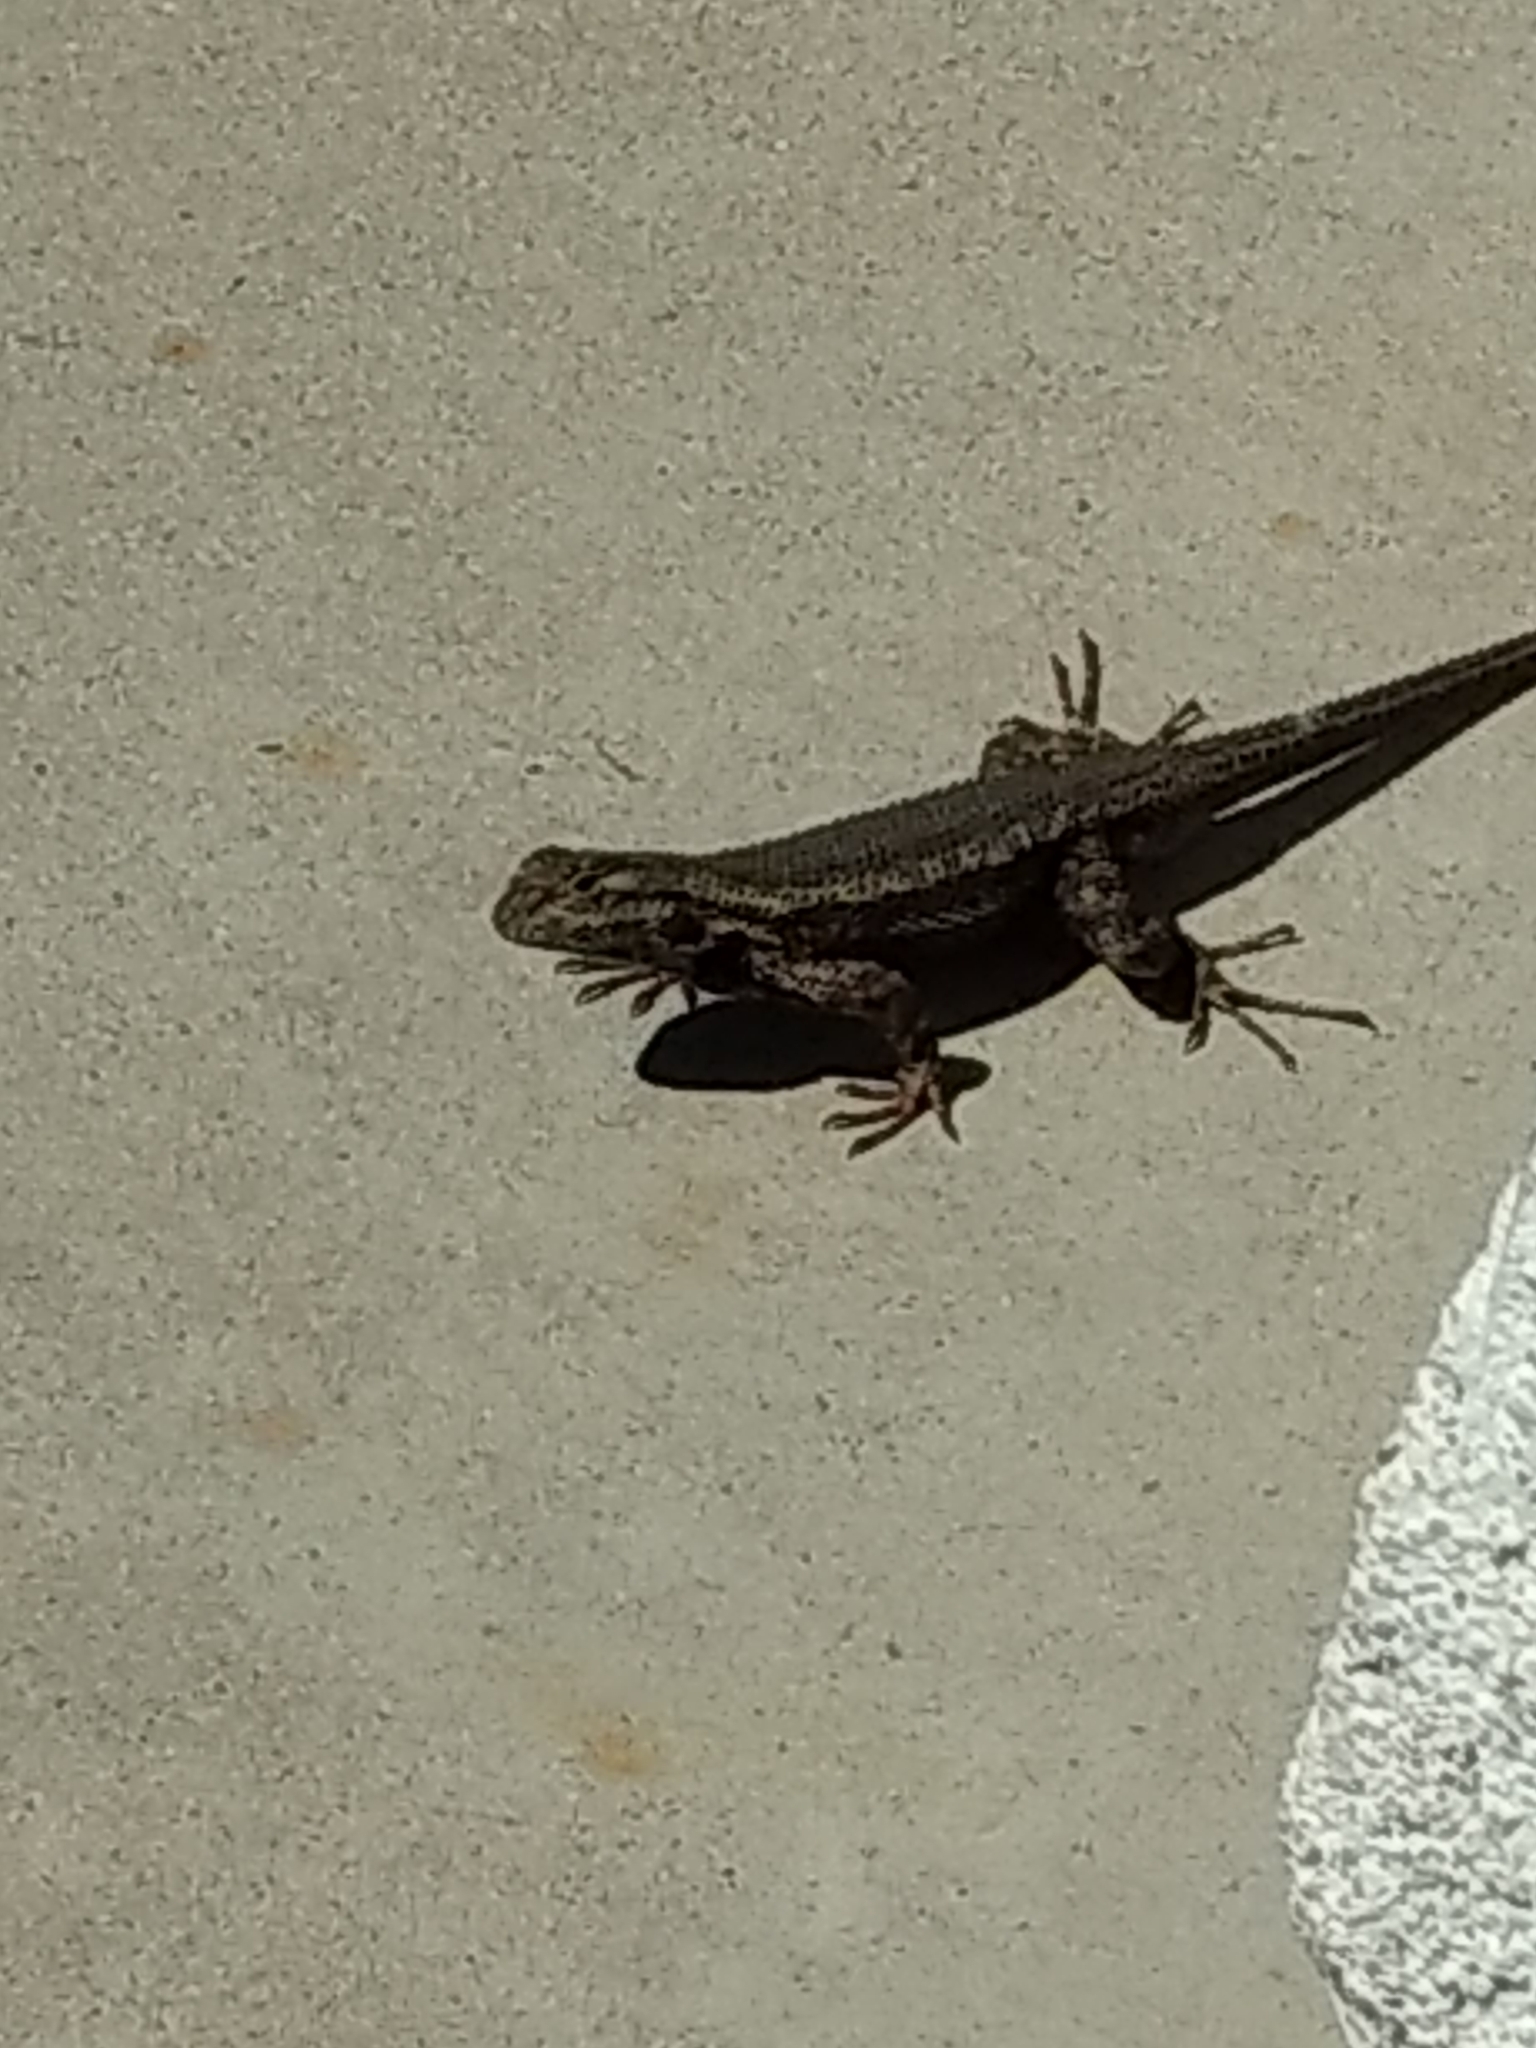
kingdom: Animalia
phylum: Chordata
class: Squamata
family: Phrynosomatidae
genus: Sceloporus
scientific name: Sceloporus occidentalis
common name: Western fence lizard
